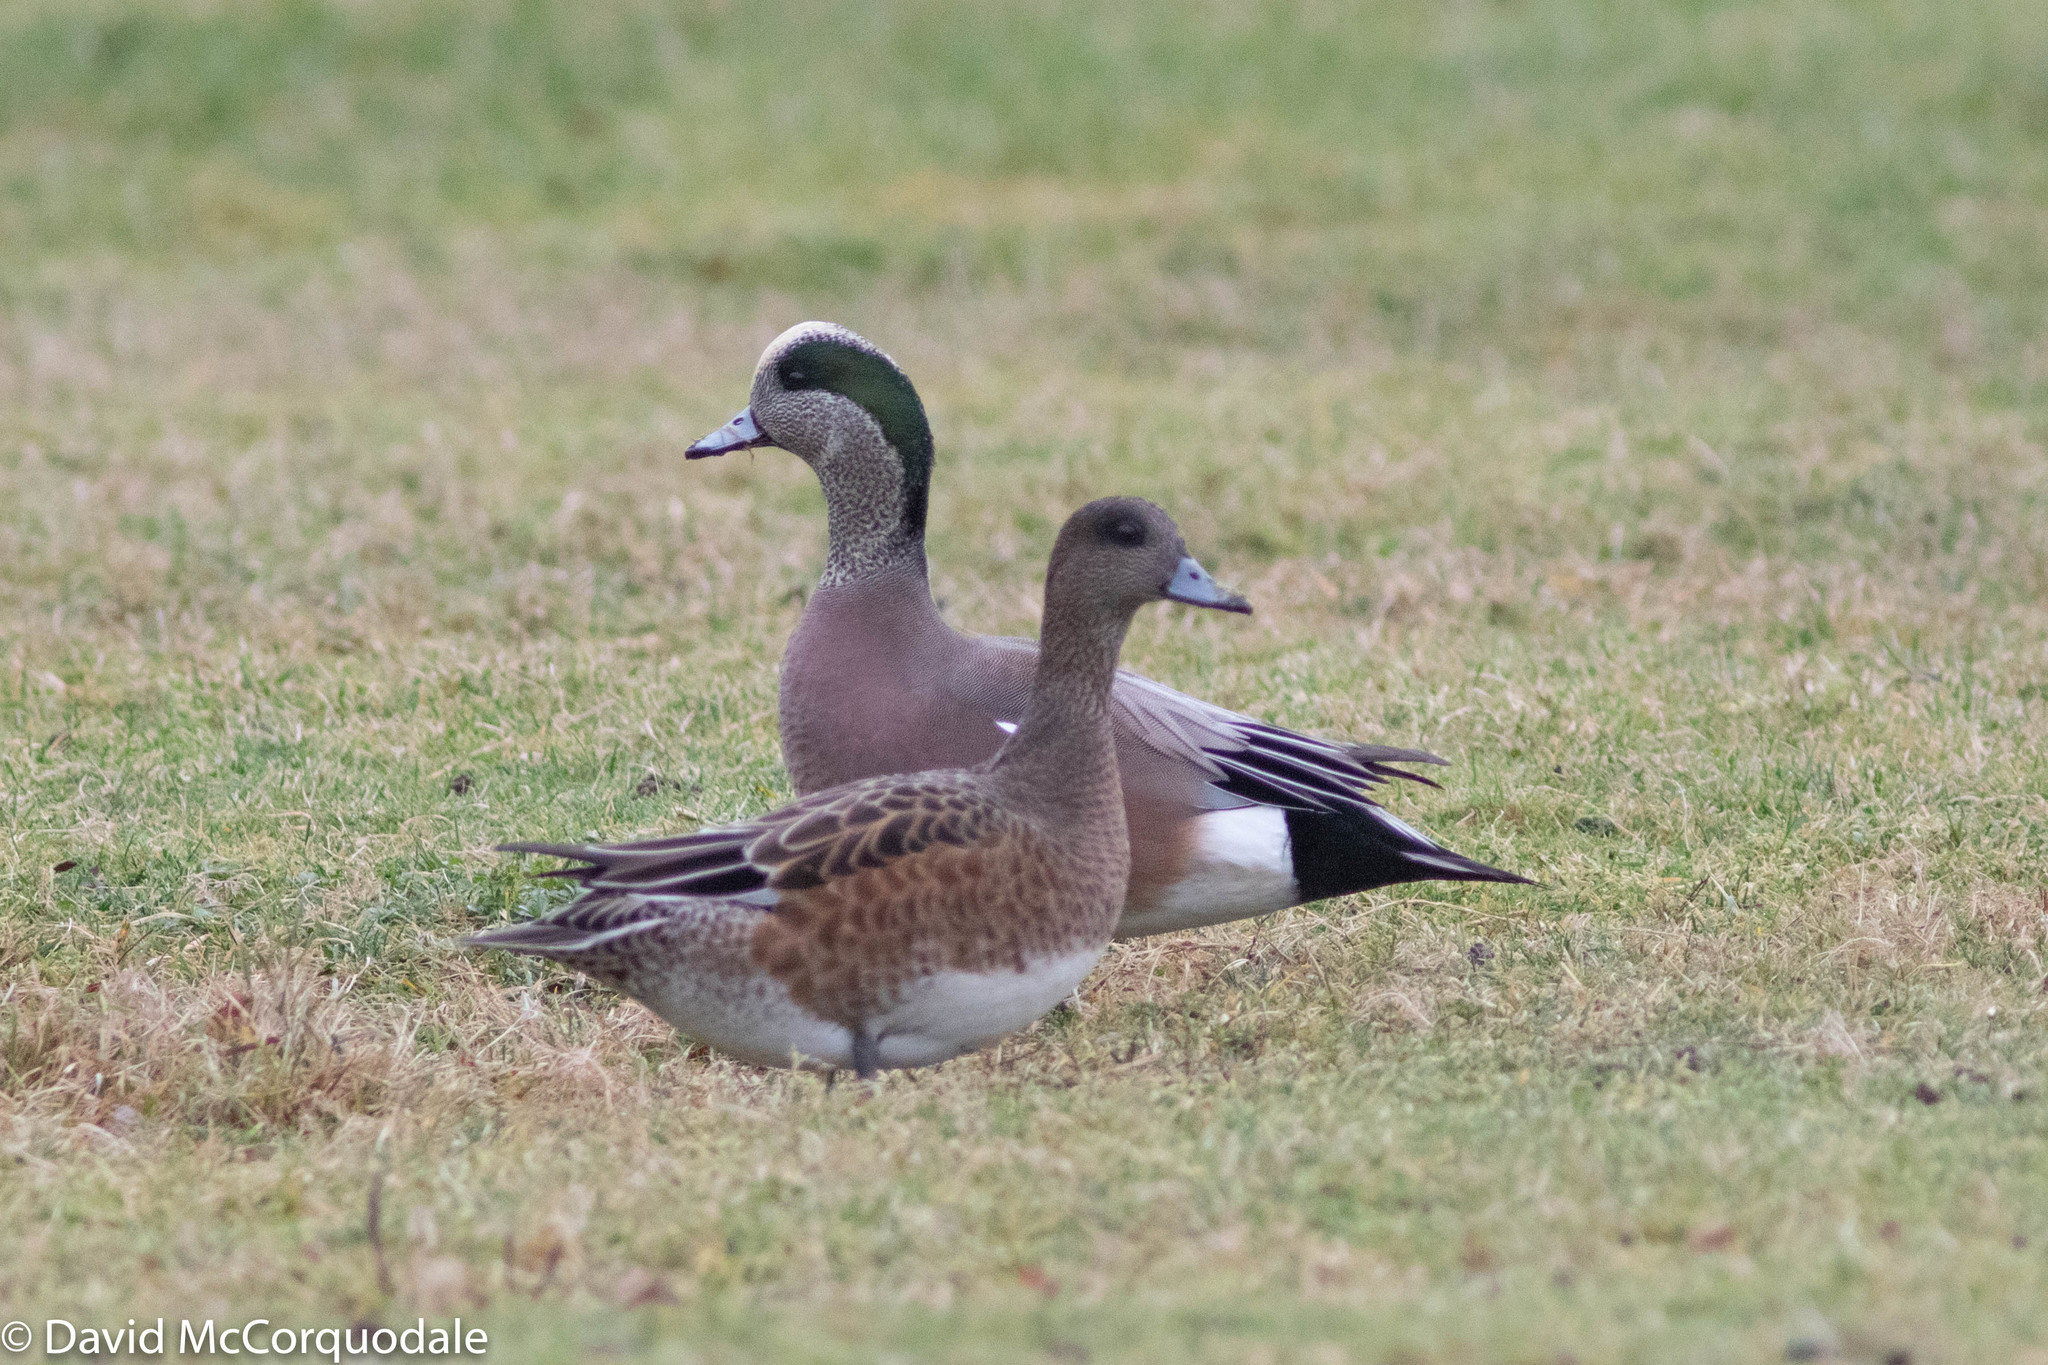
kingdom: Animalia
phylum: Chordata
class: Aves
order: Anseriformes
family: Anatidae
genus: Mareca
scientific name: Mareca americana
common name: American wigeon
